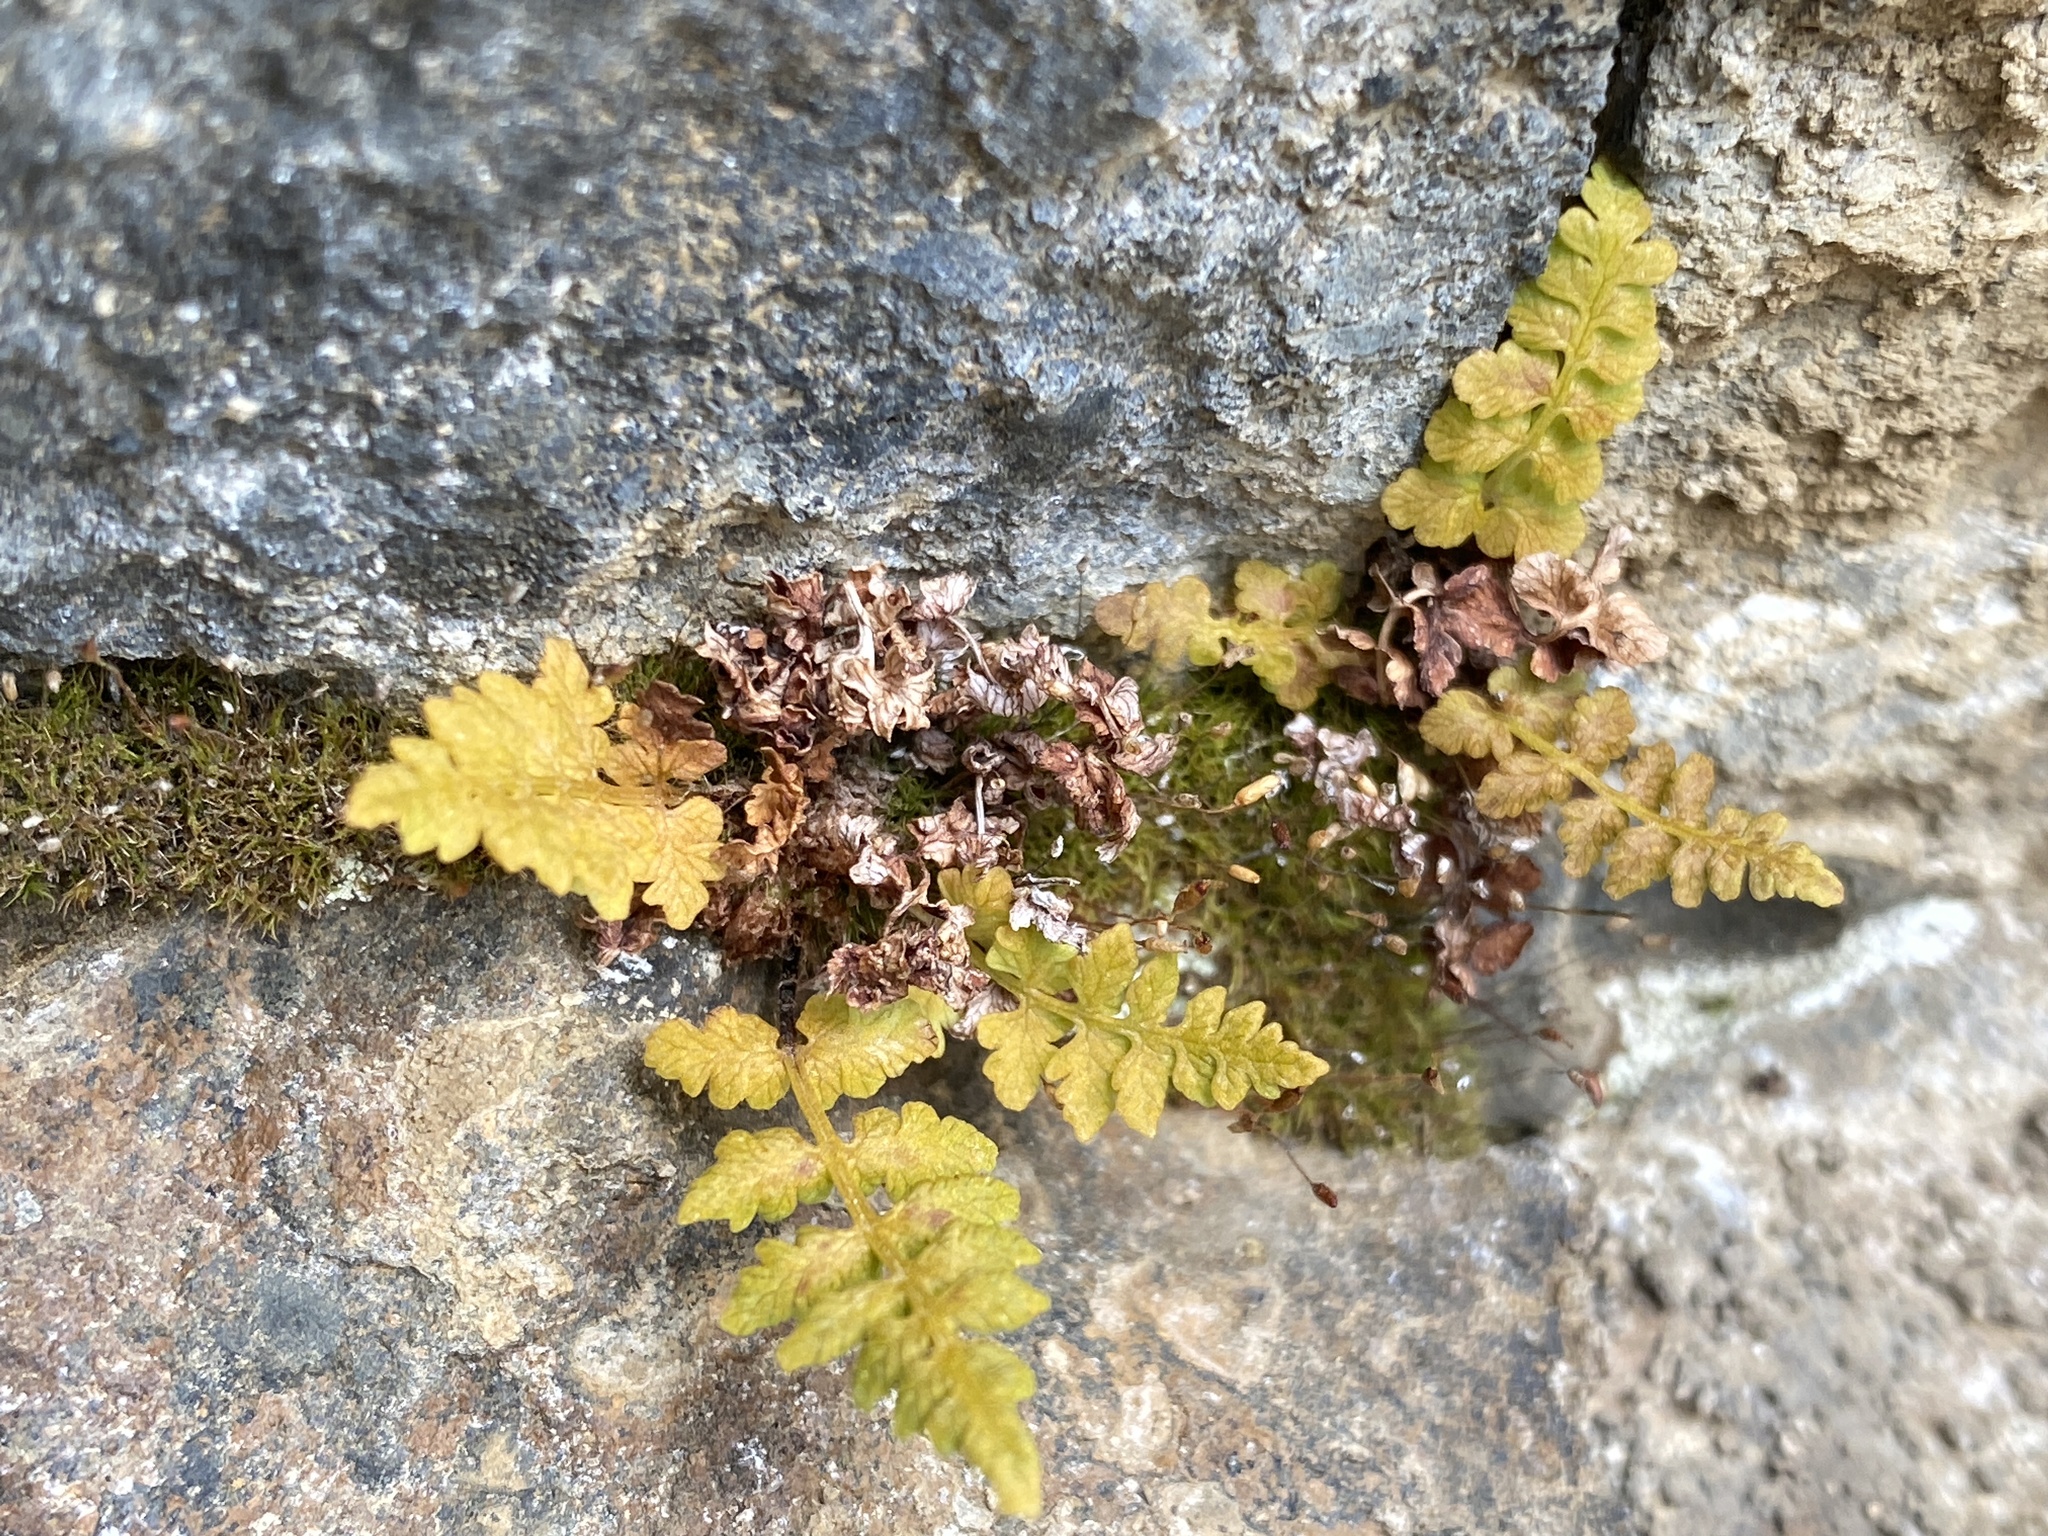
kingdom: Plantae
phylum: Tracheophyta
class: Polypodiopsida
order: Polypodiales
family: Cystopteridaceae
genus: Cystopteris
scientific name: Cystopteris fragilis
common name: Brittle bladder fern
